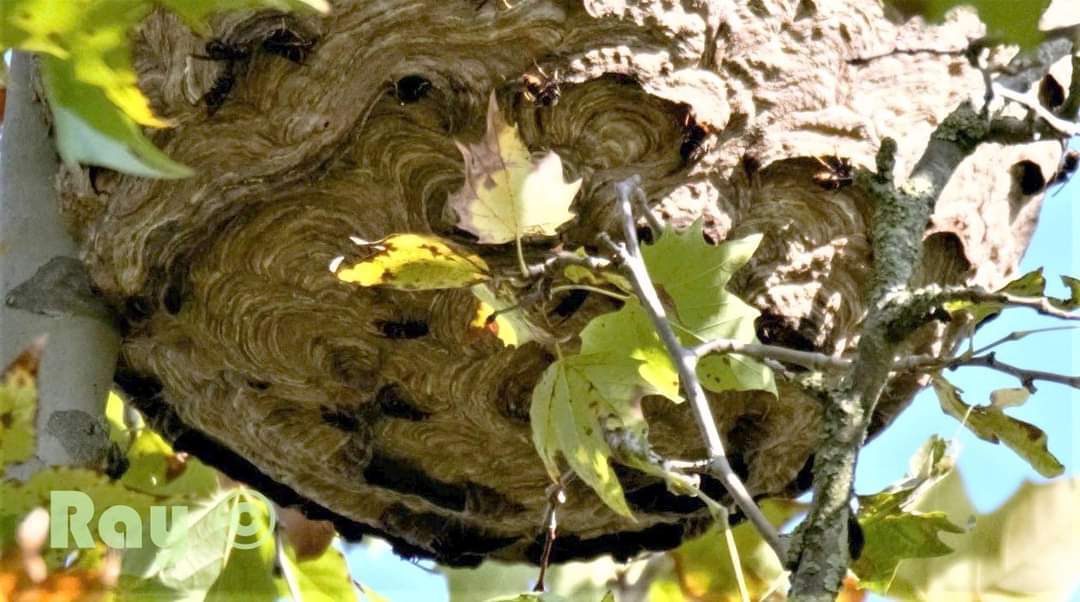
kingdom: Animalia
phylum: Arthropoda
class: Insecta
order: Hymenoptera
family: Vespidae
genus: Vespa
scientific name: Vespa velutina
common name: Asian hornet
